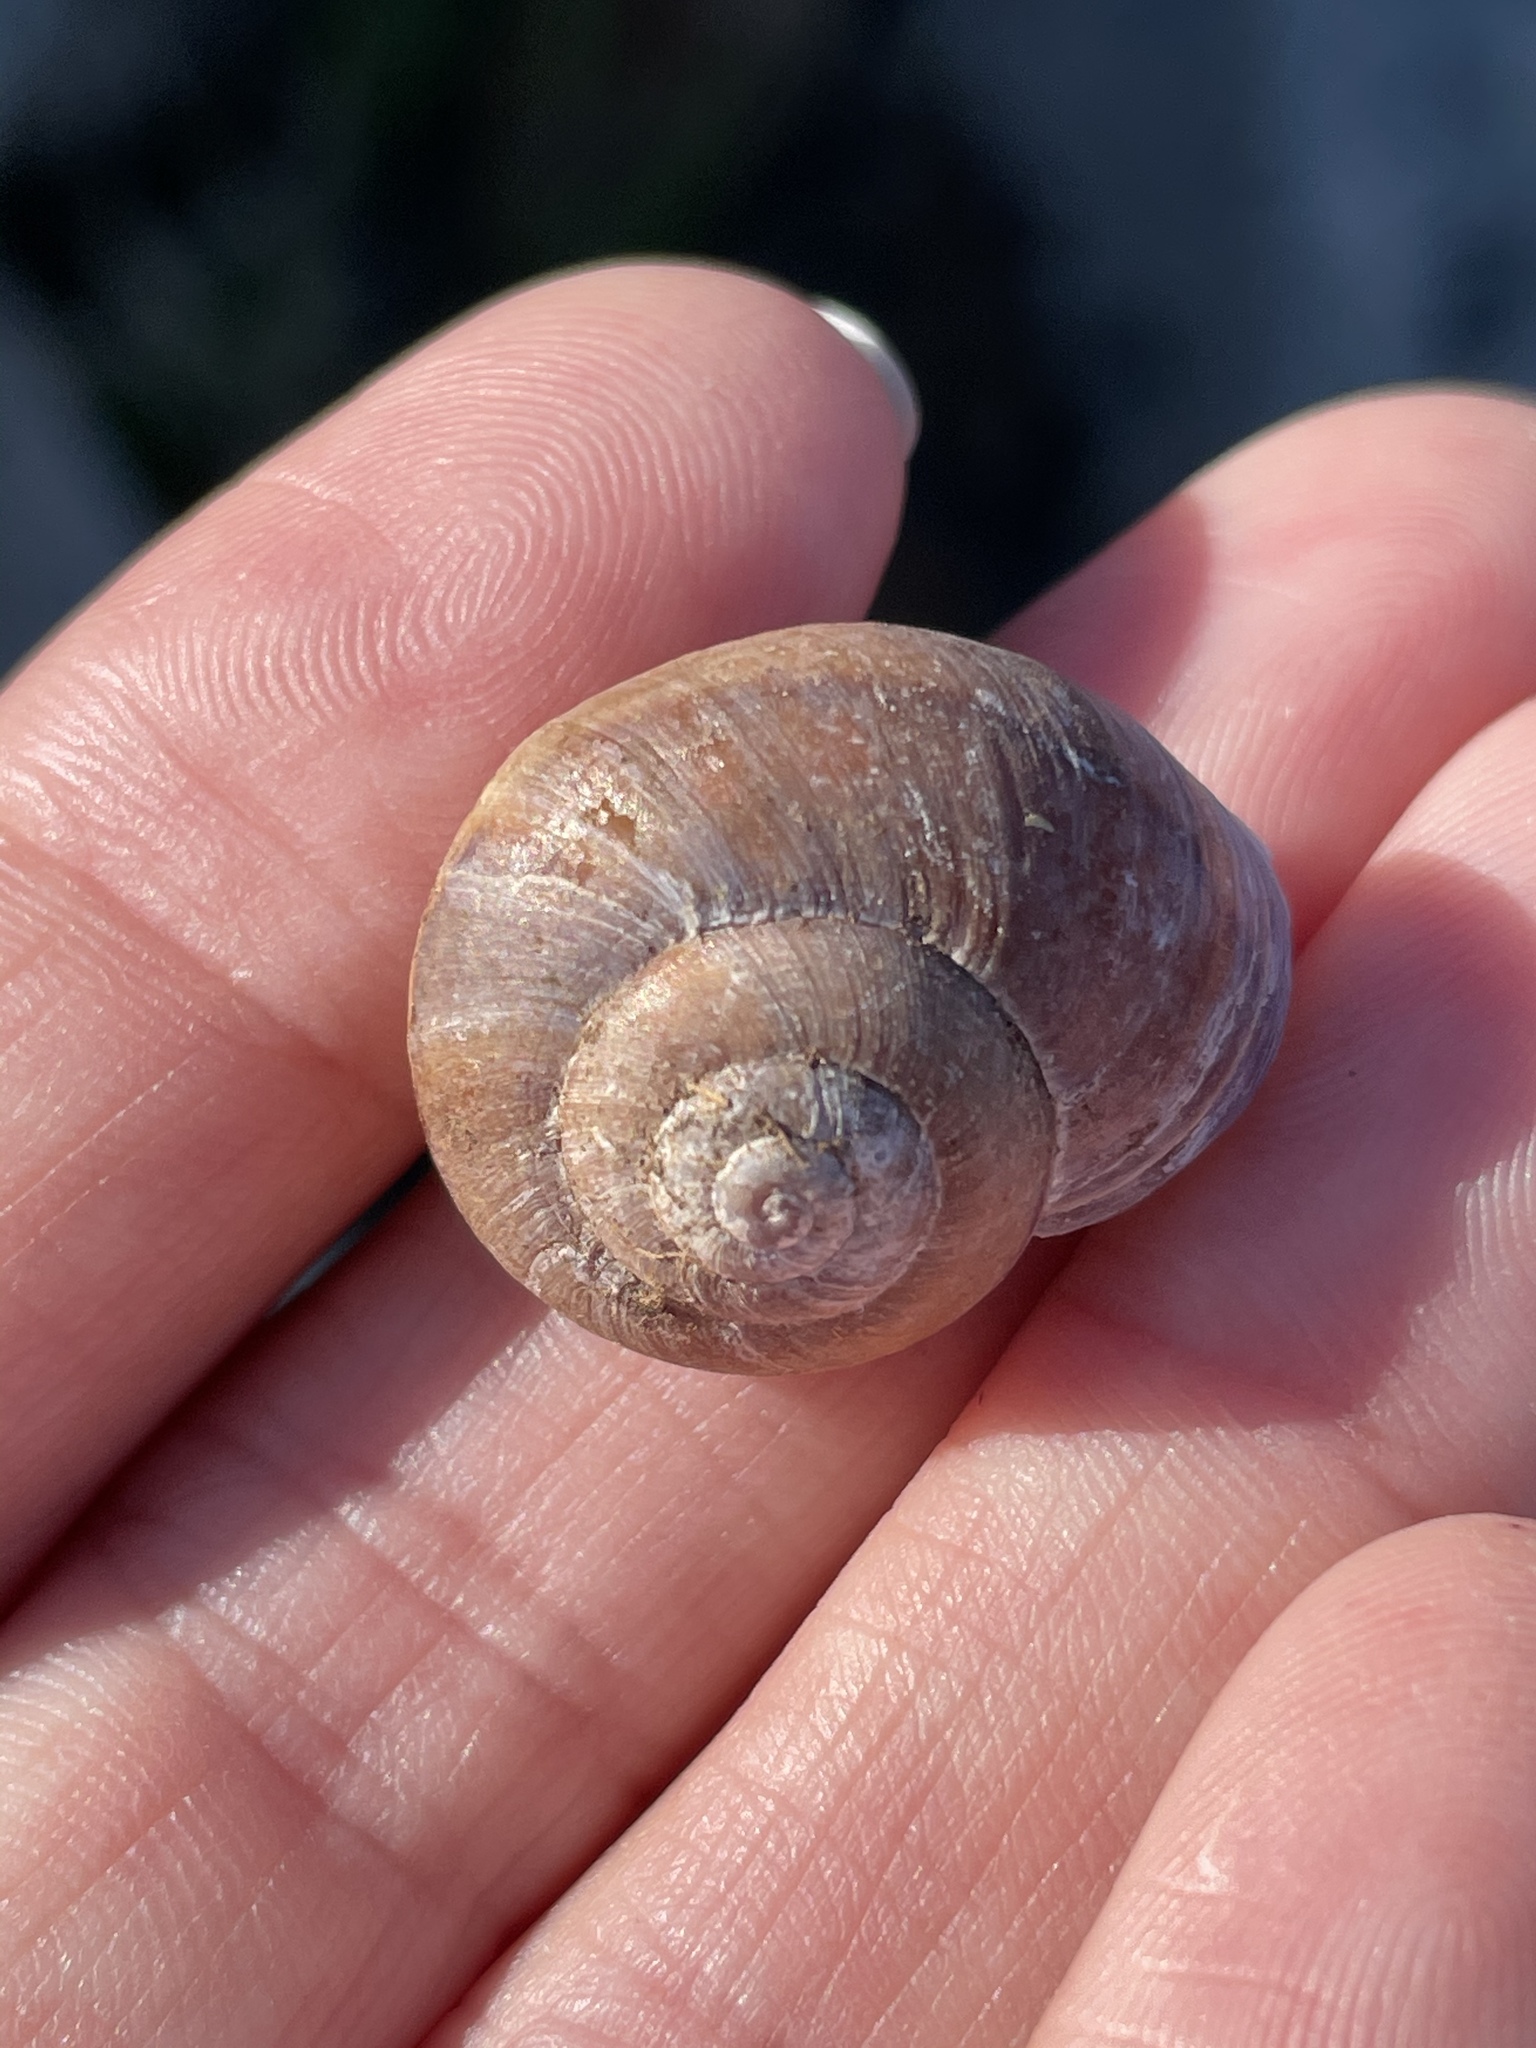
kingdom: Animalia
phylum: Mollusca
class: Gastropoda
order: Stylommatophora
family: Xanthonychidae
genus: Xerarionta
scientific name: Xerarionta redimita
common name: Wreathed cactus snail
